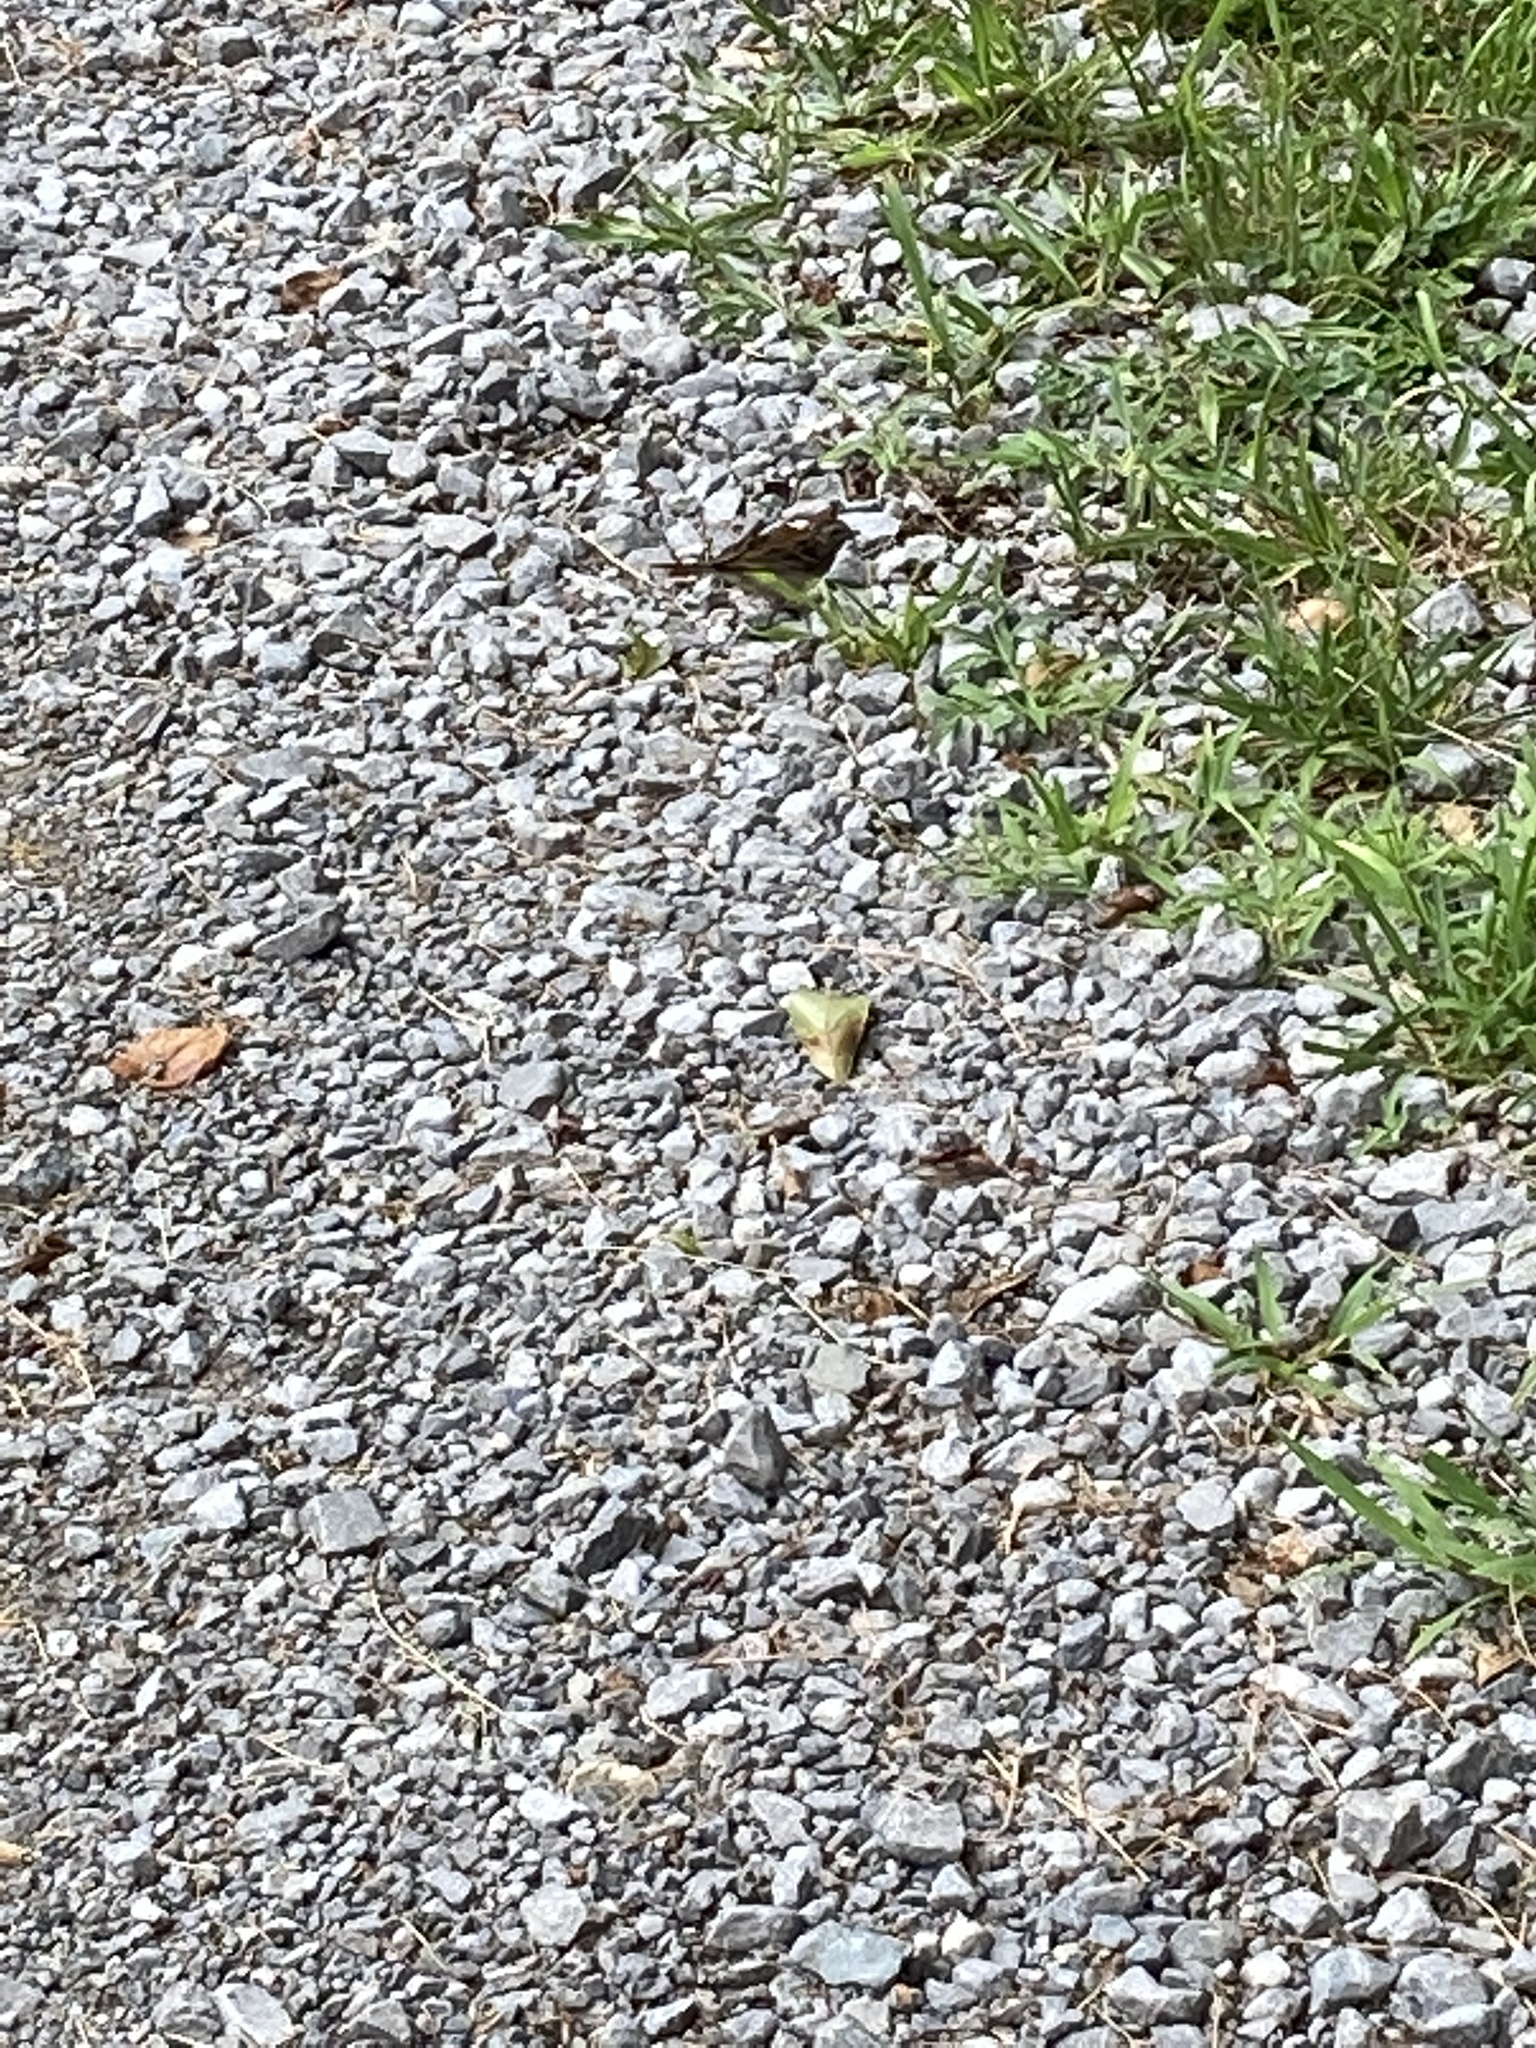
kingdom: Animalia
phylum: Chordata
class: Aves
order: Passeriformes
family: Passerellidae
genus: Spizella
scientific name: Spizella passerina
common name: Chipping sparrow
